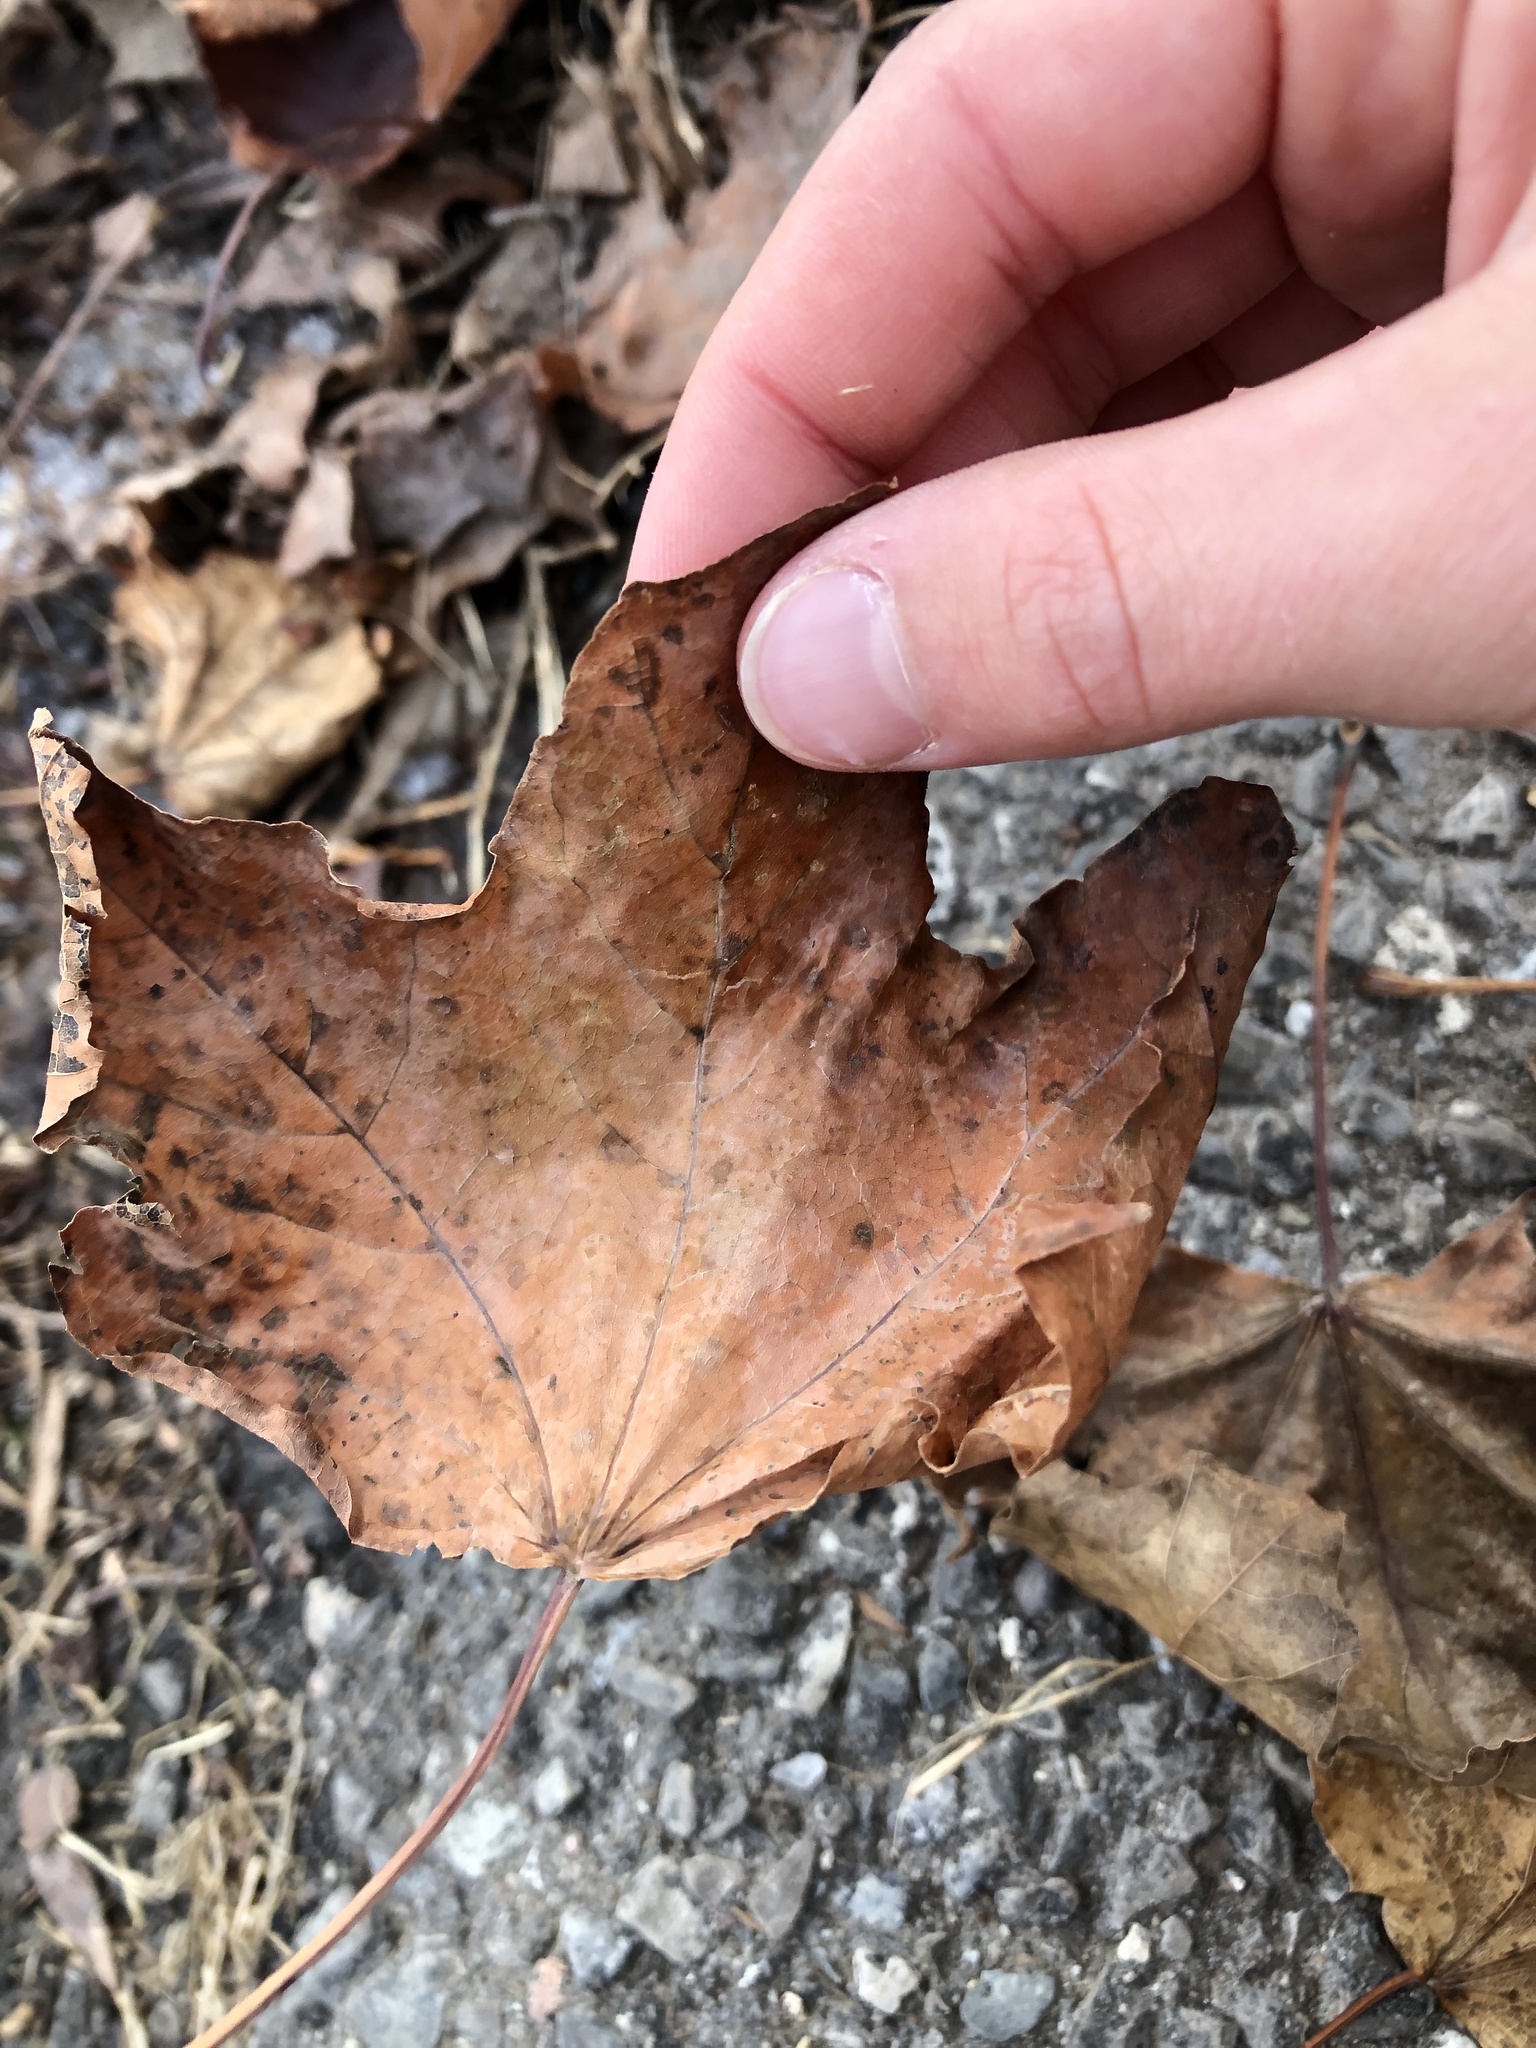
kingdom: Plantae
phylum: Tracheophyta
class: Magnoliopsida
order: Sapindales
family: Sapindaceae
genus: Acer
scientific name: Acer saccharum
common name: Sugar maple
